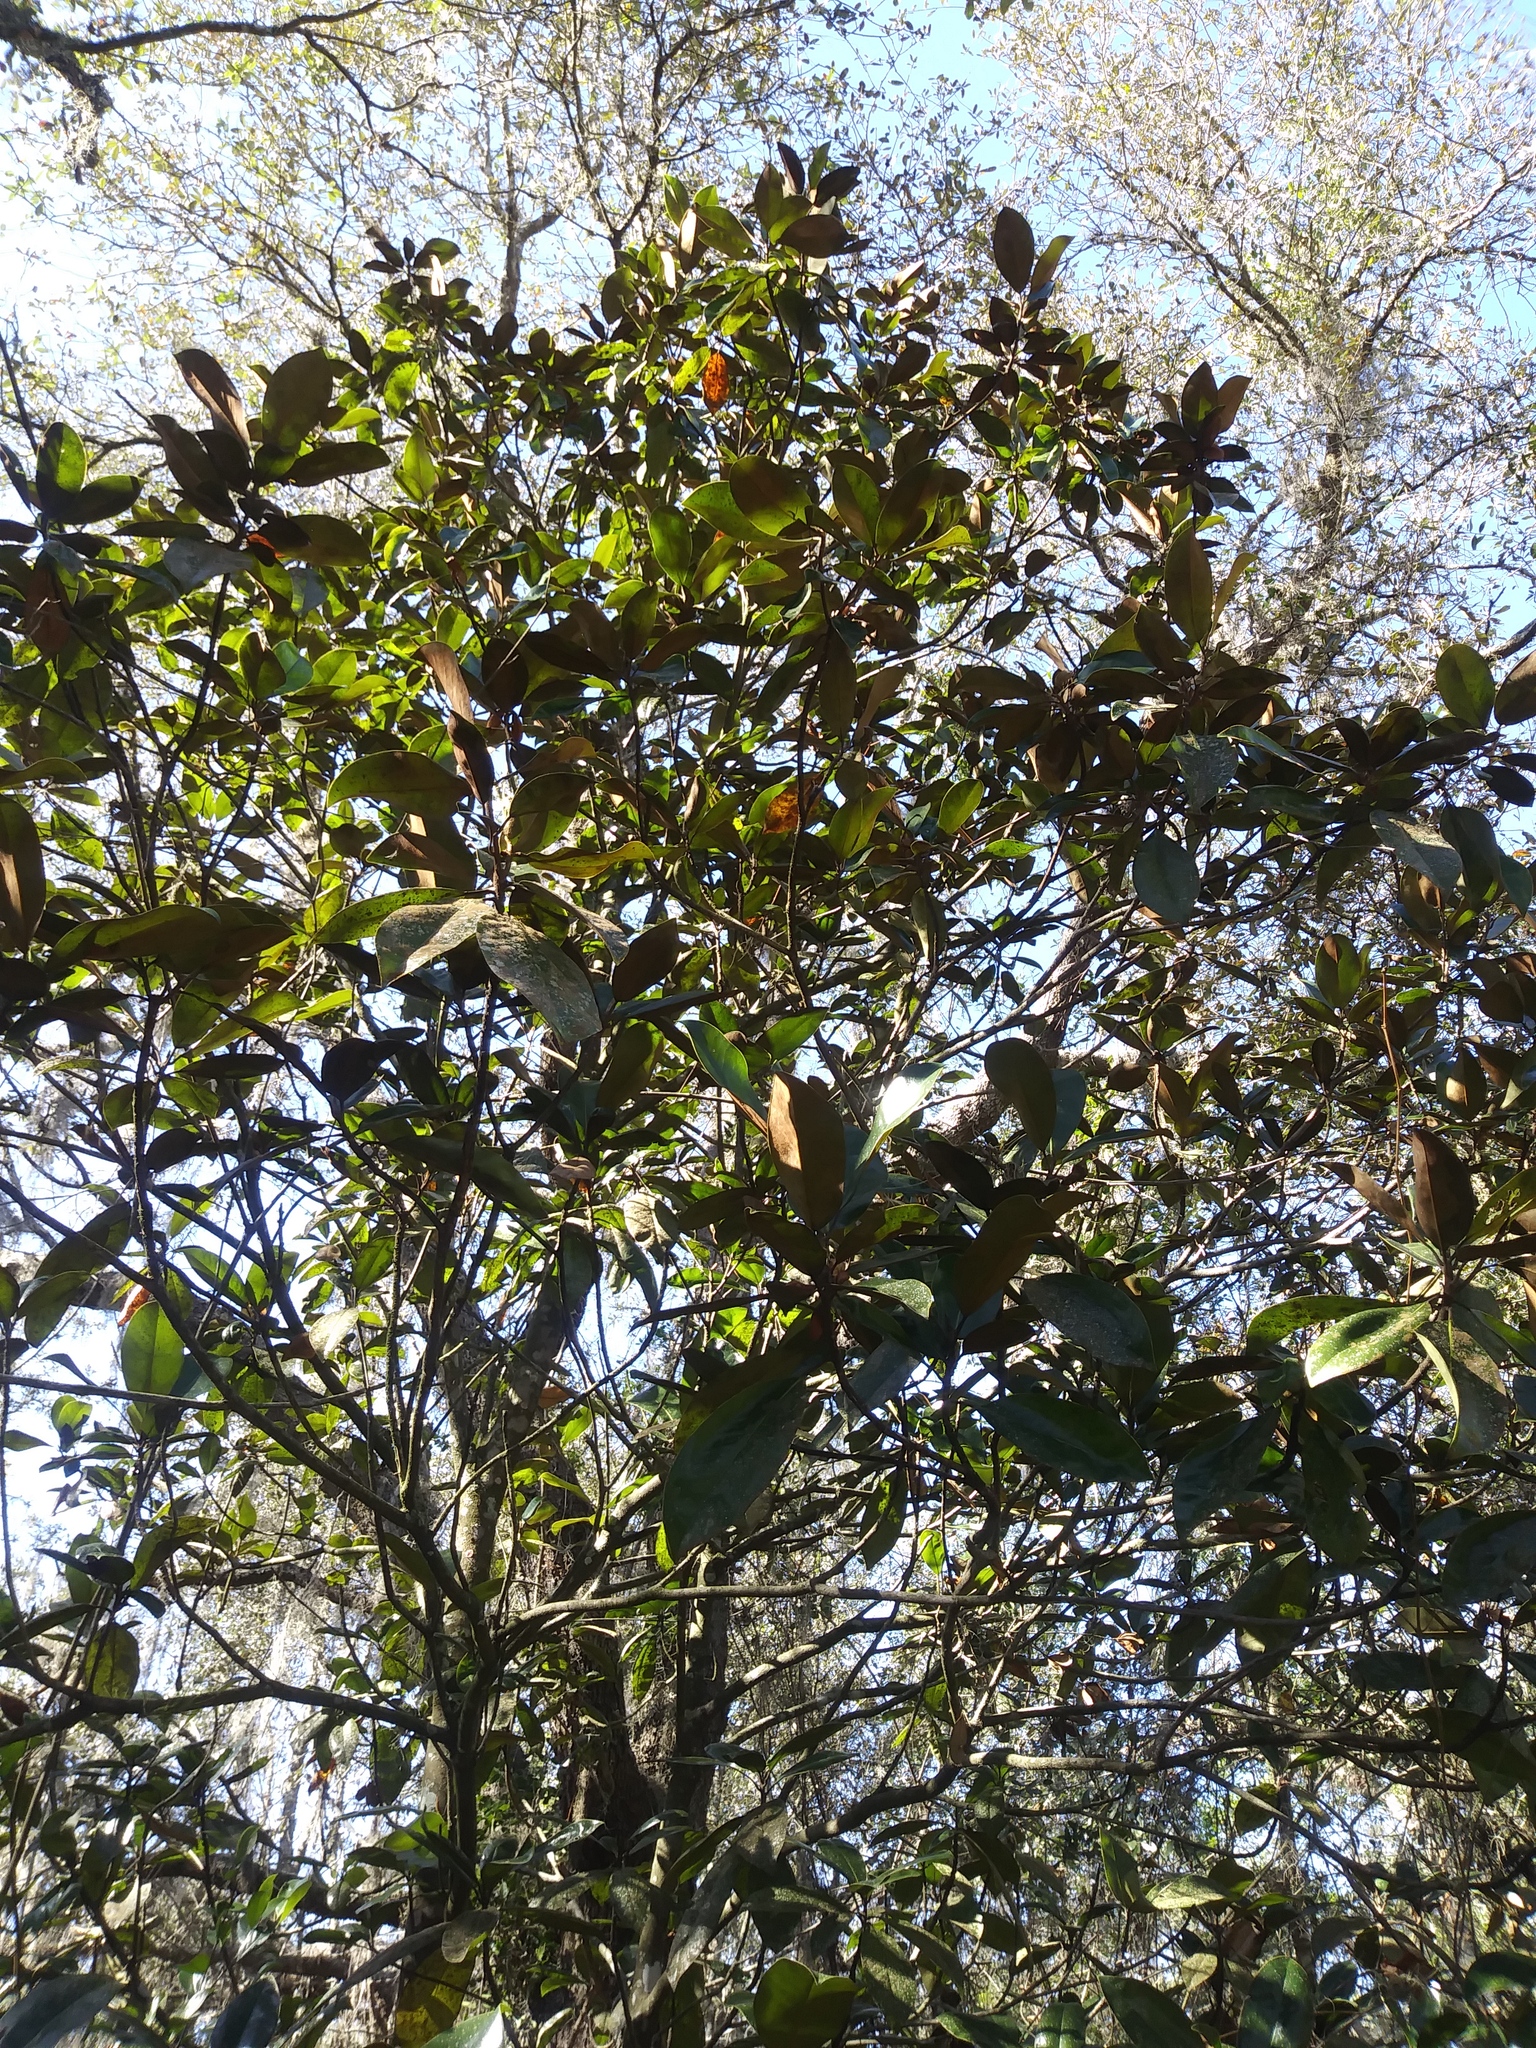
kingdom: Plantae
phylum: Tracheophyta
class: Magnoliopsida
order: Magnoliales
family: Magnoliaceae
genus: Magnolia
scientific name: Magnolia grandiflora
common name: Southern magnolia
